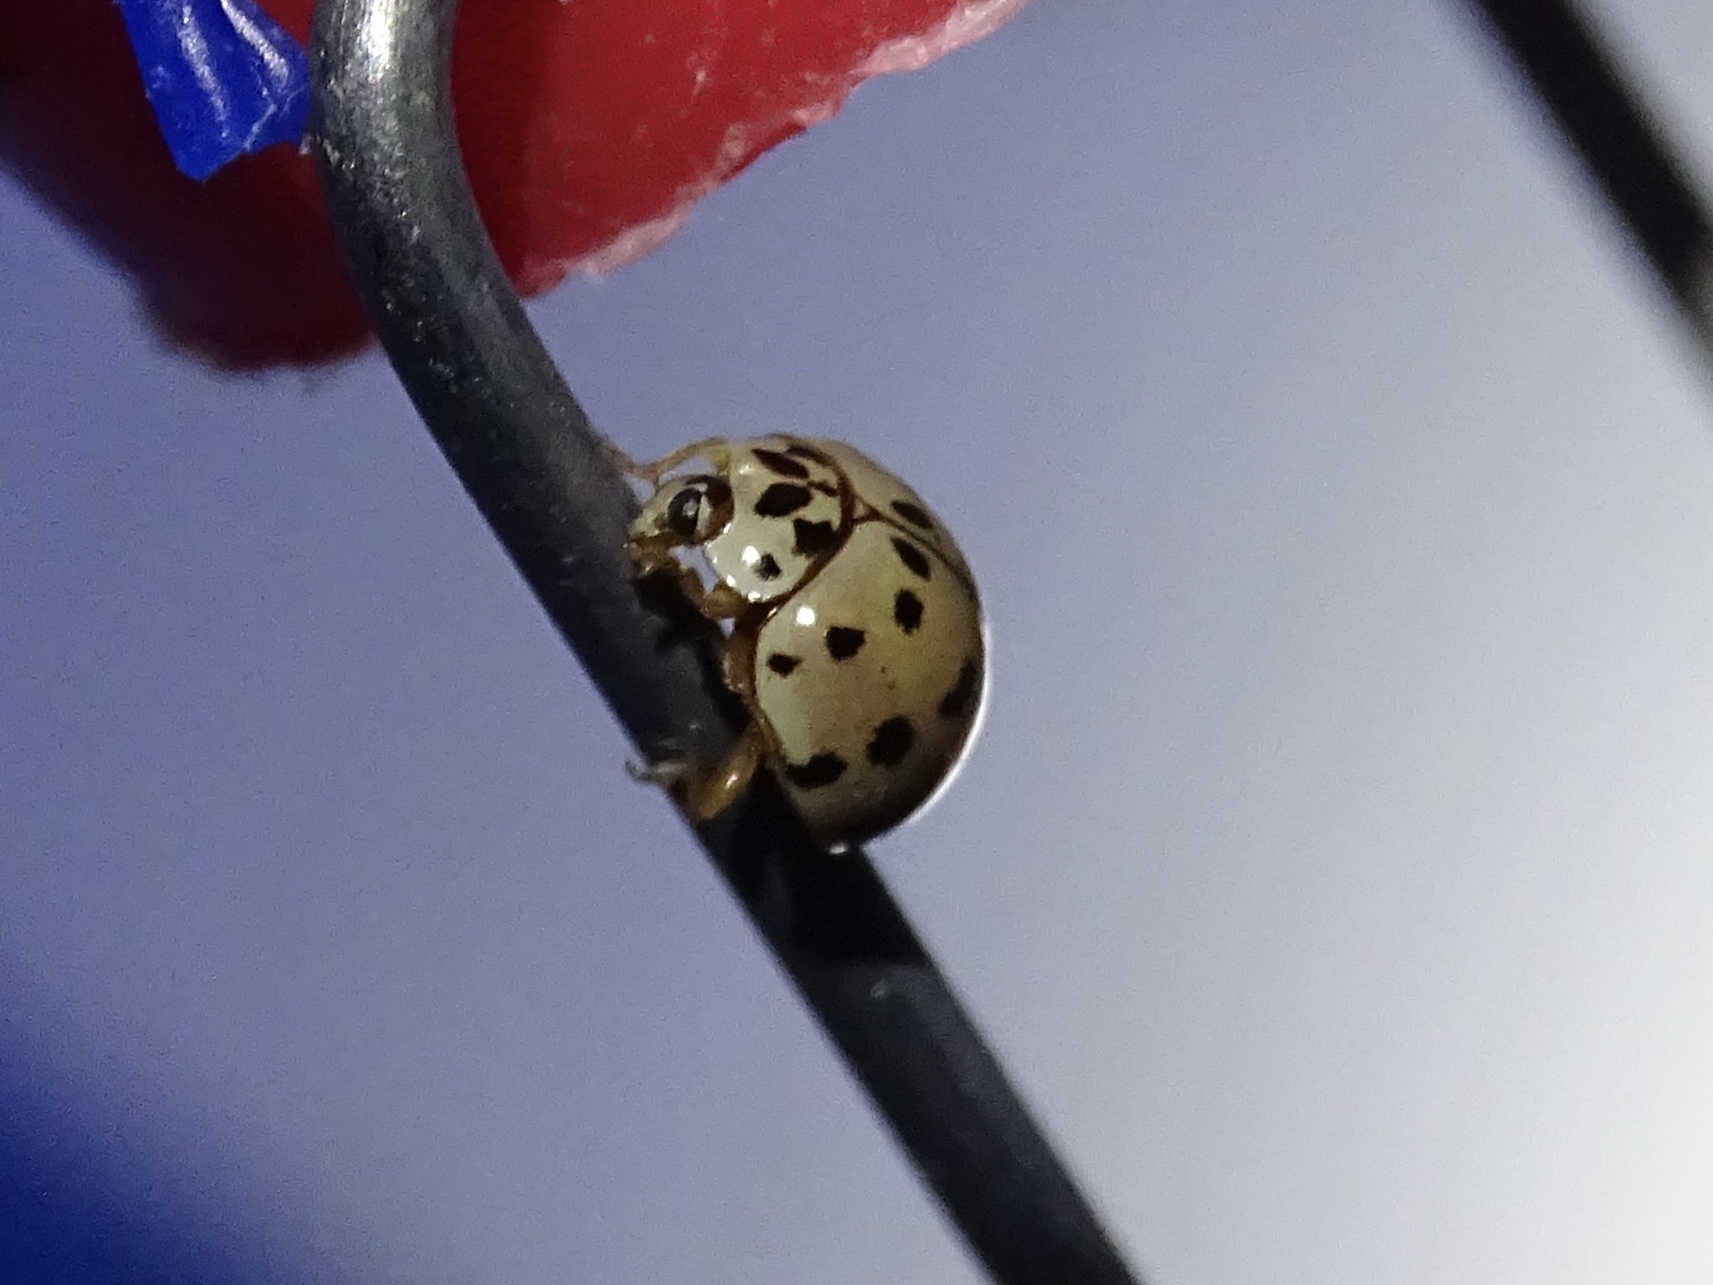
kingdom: Animalia
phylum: Arthropoda
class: Insecta
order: Coleoptera
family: Coccinellidae
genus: Olla
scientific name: Olla v-nigrum
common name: Ashy gray lady beetle
